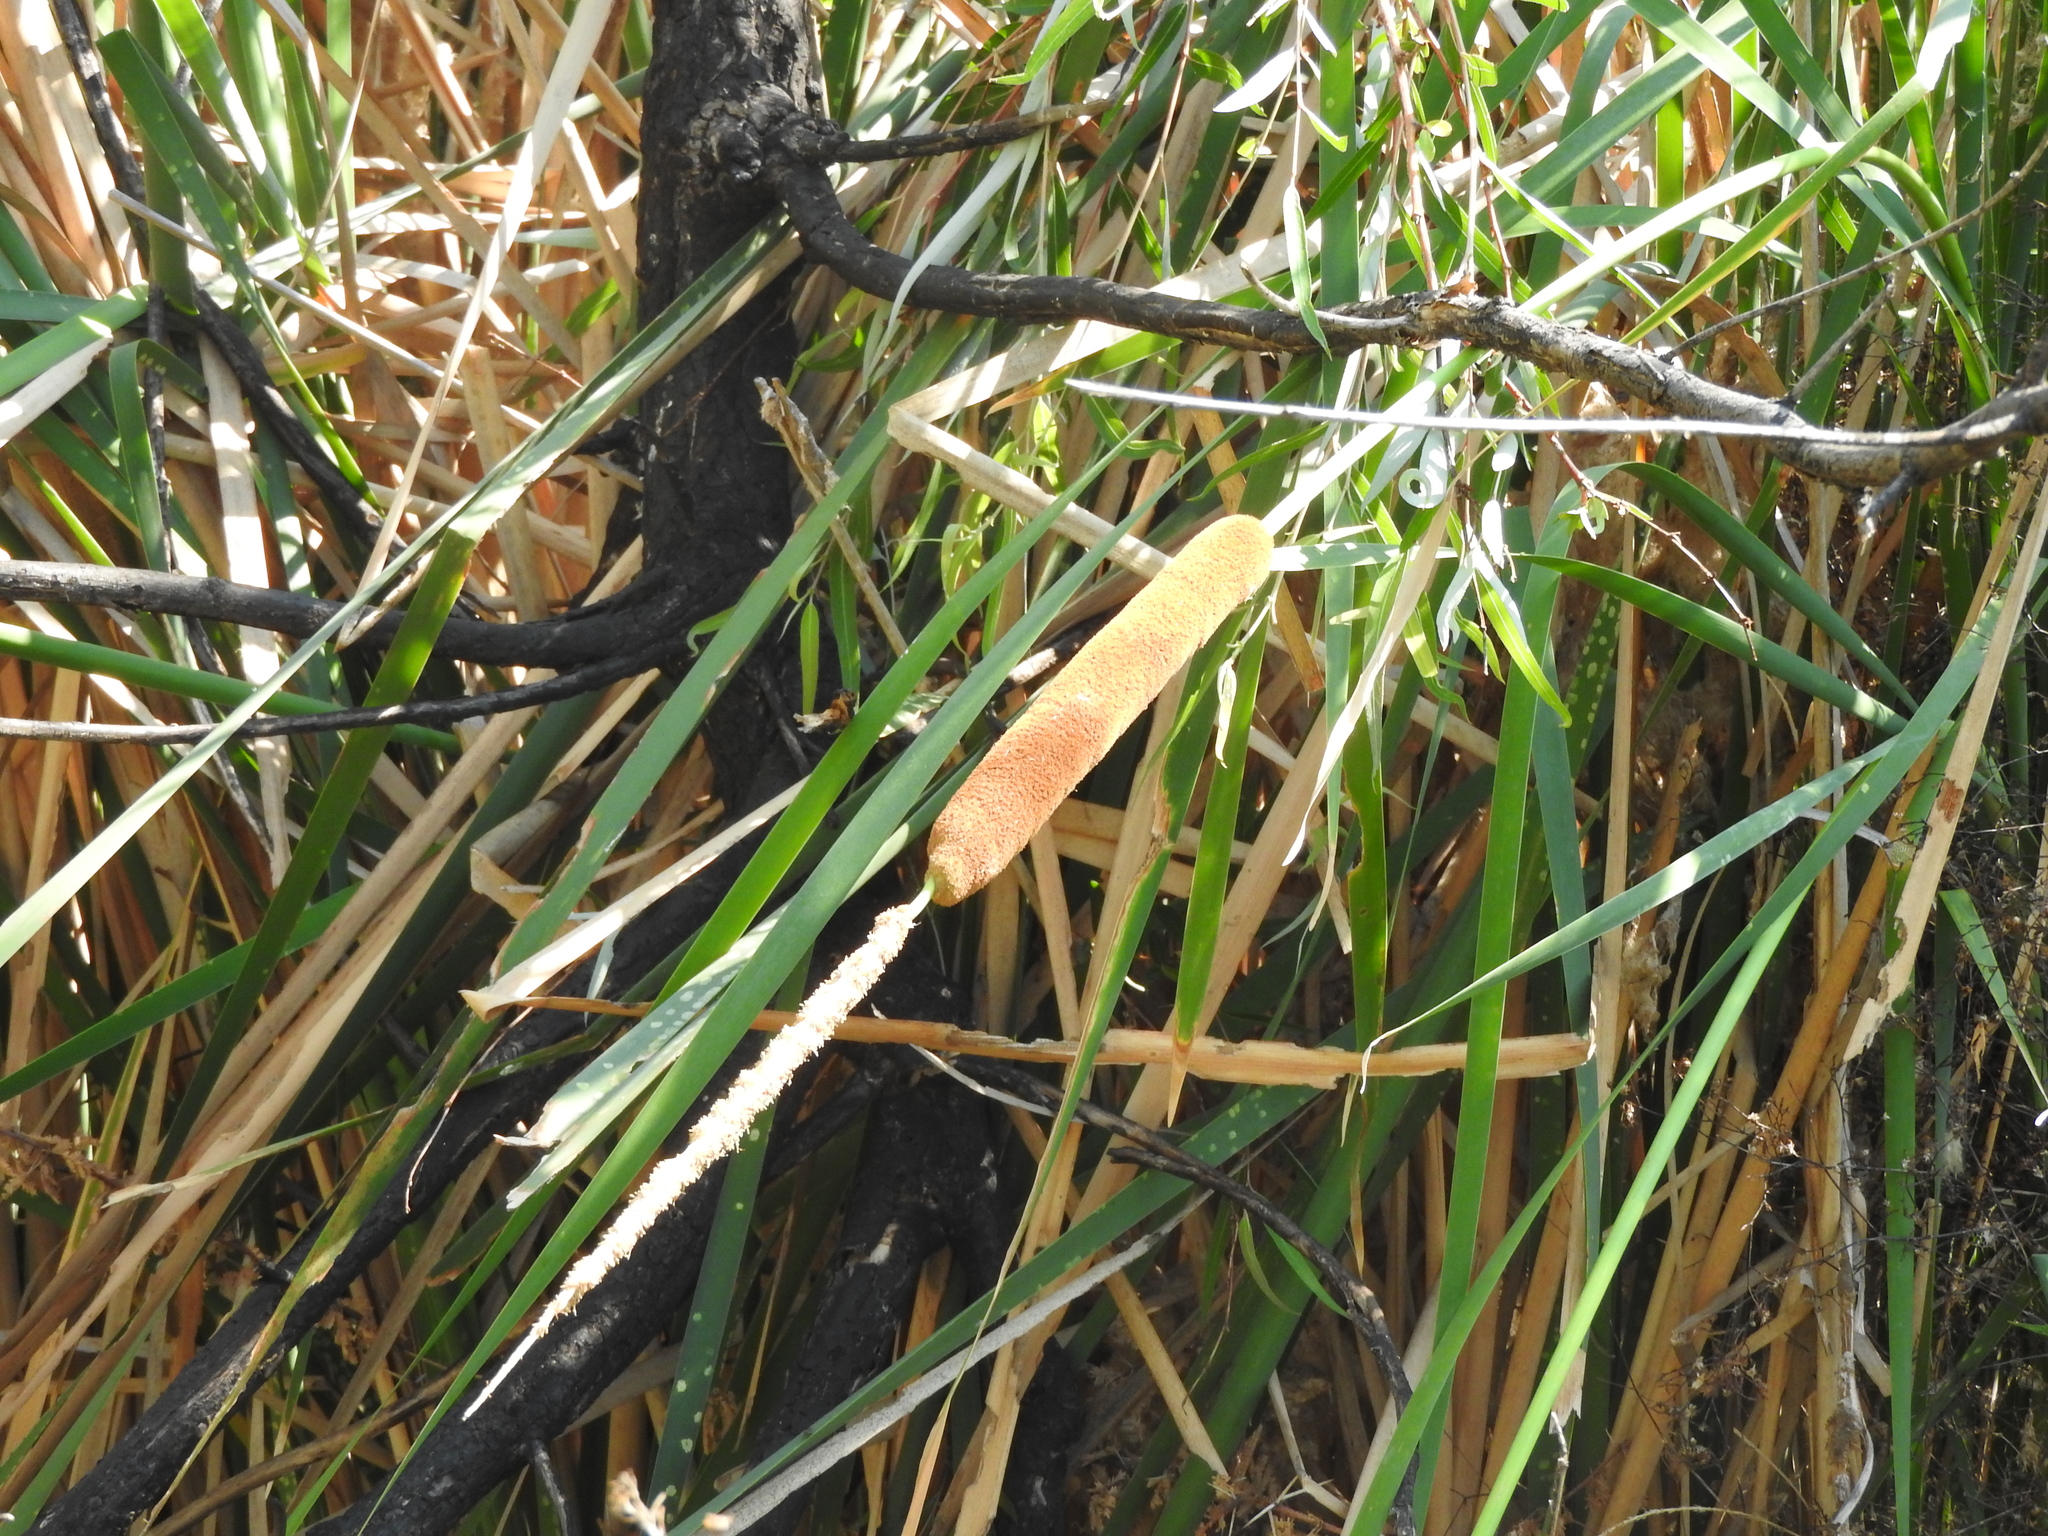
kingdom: Plantae
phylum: Tracheophyta
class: Liliopsida
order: Poales
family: Typhaceae
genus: Typha
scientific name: Typha domingensis
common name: Southern cattail
